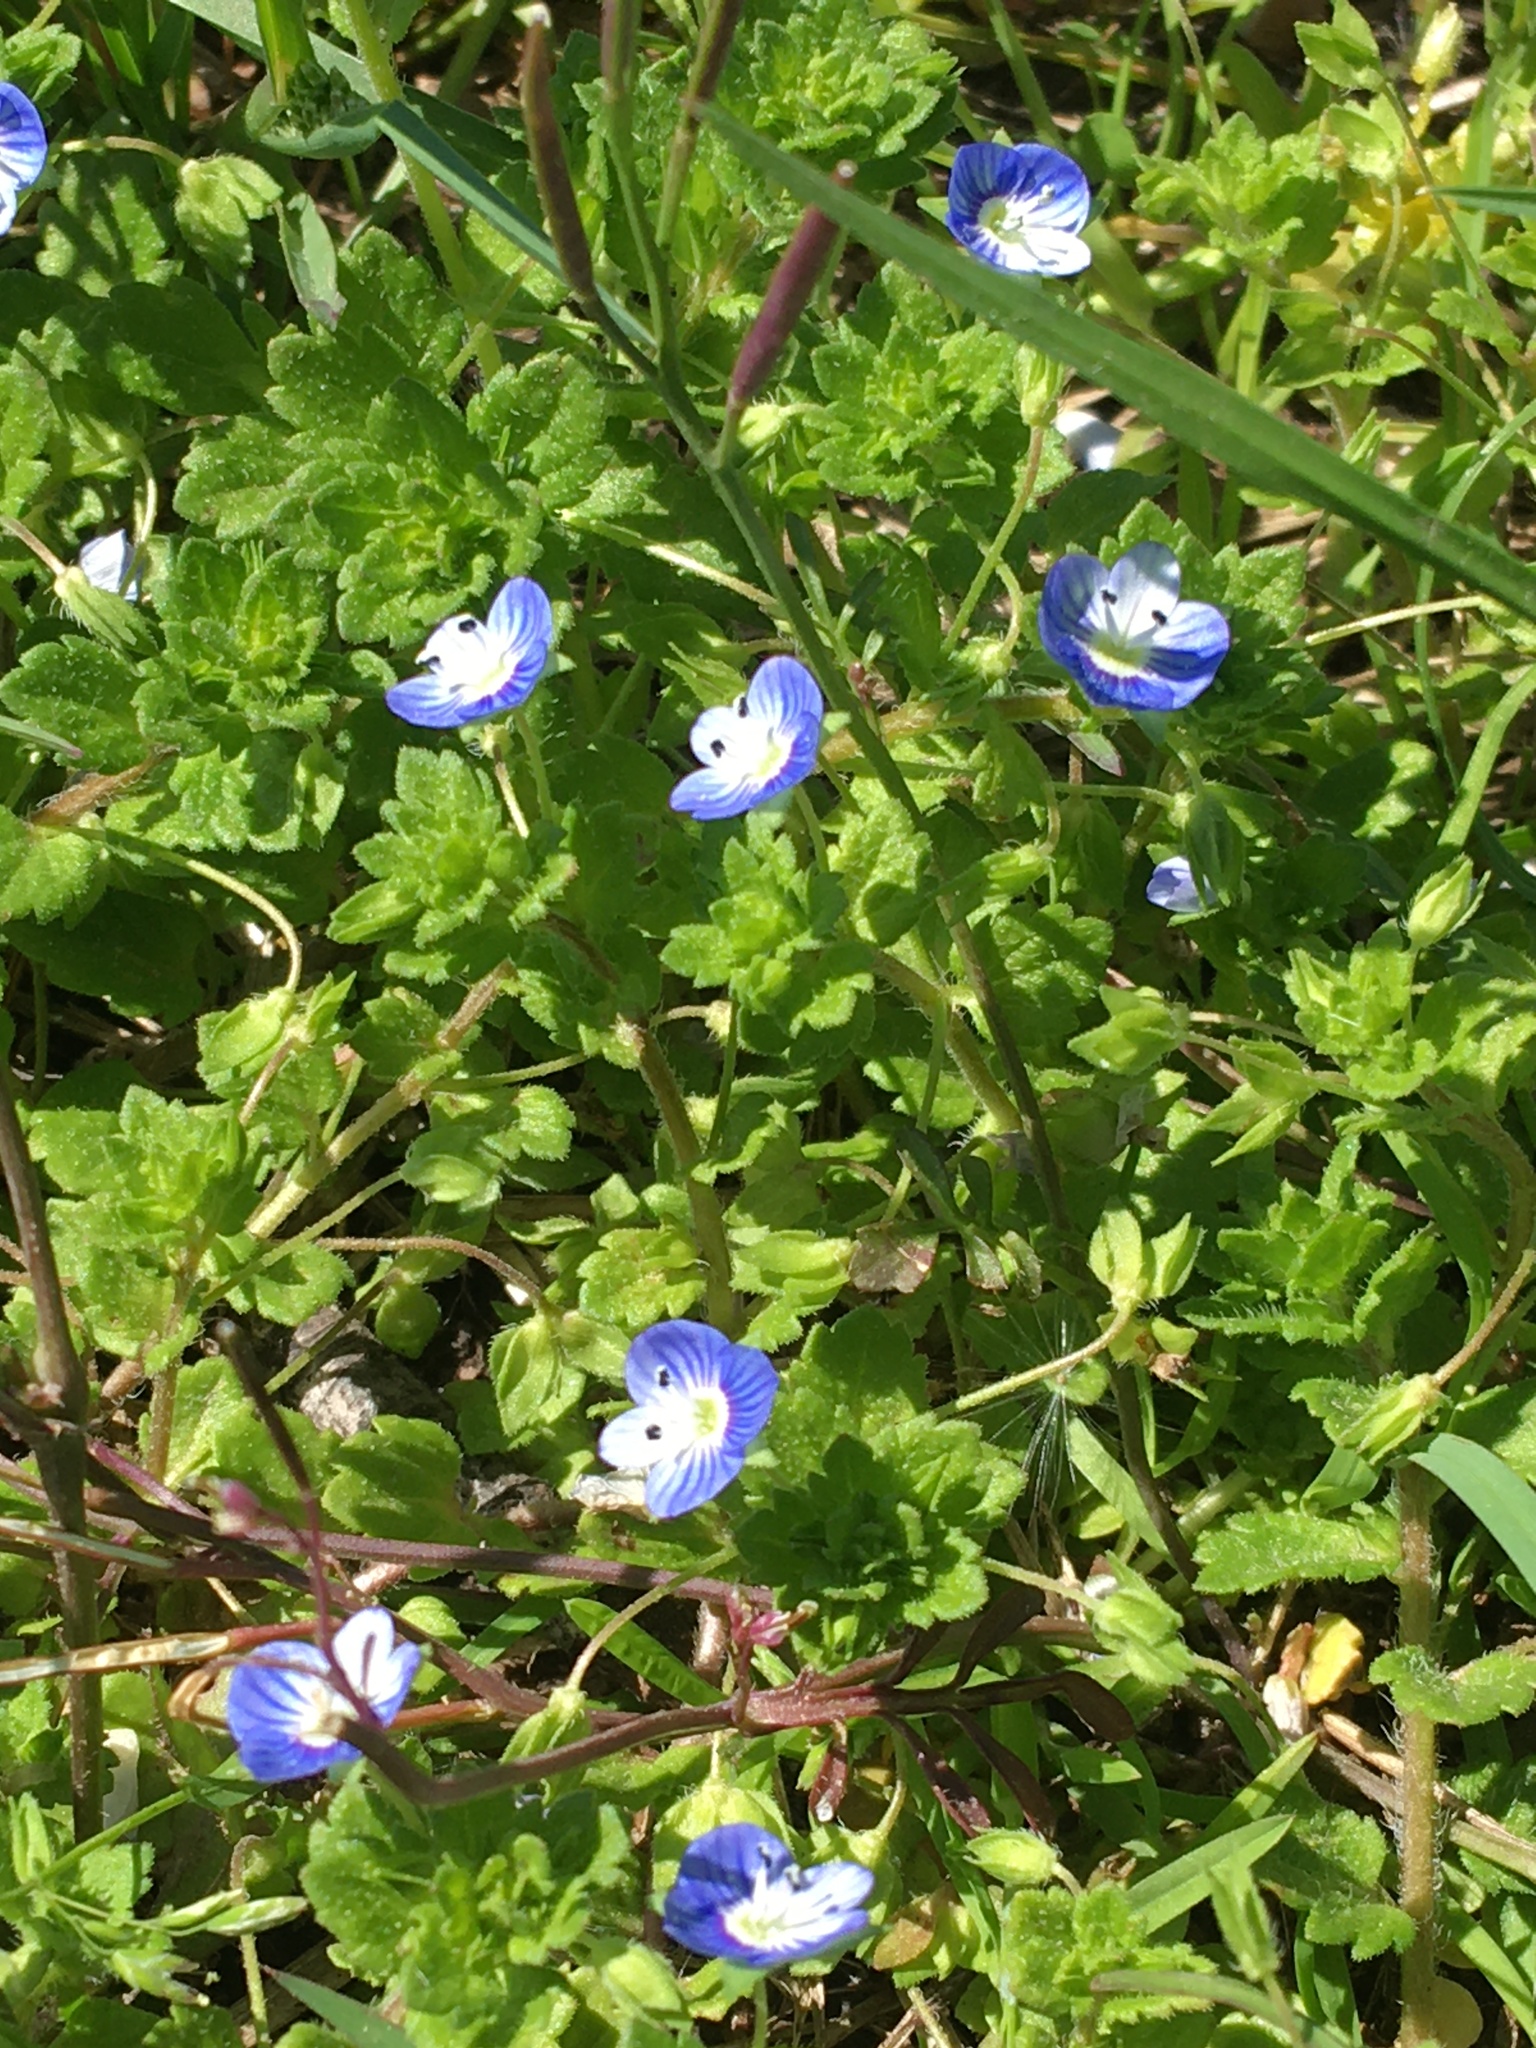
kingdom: Plantae
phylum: Tracheophyta
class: Magnoliopsida
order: Lamiales
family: Plantaginaceae
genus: Veronica
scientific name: Veronica persica
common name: Common field-speedwell
